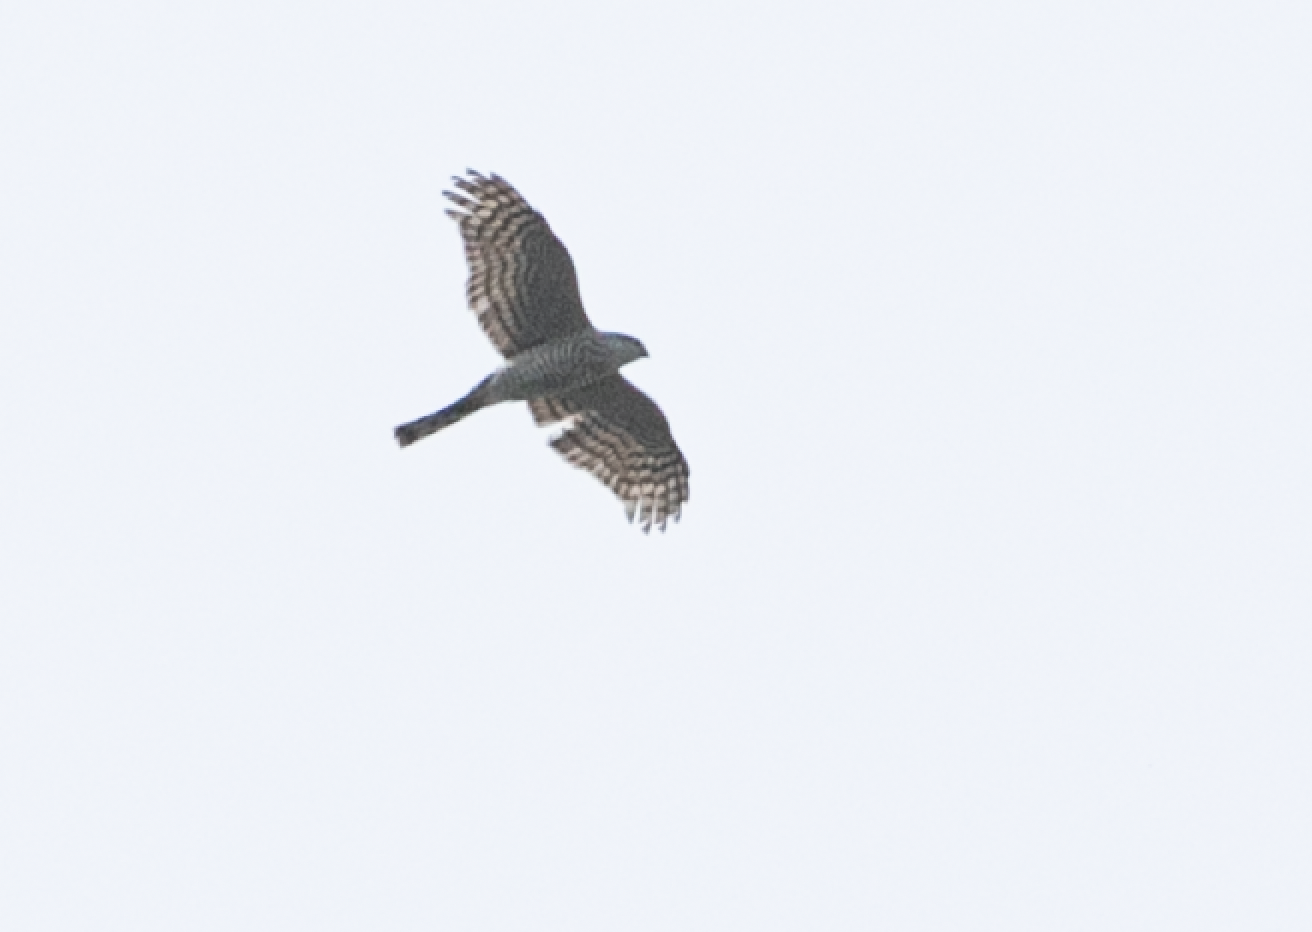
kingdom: Animalia
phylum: Chordata
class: Aves
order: Accipitriformes
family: Accipitridae
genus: Accipiter
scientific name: Accipiter nisus
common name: Eurasian sparrowhawk
